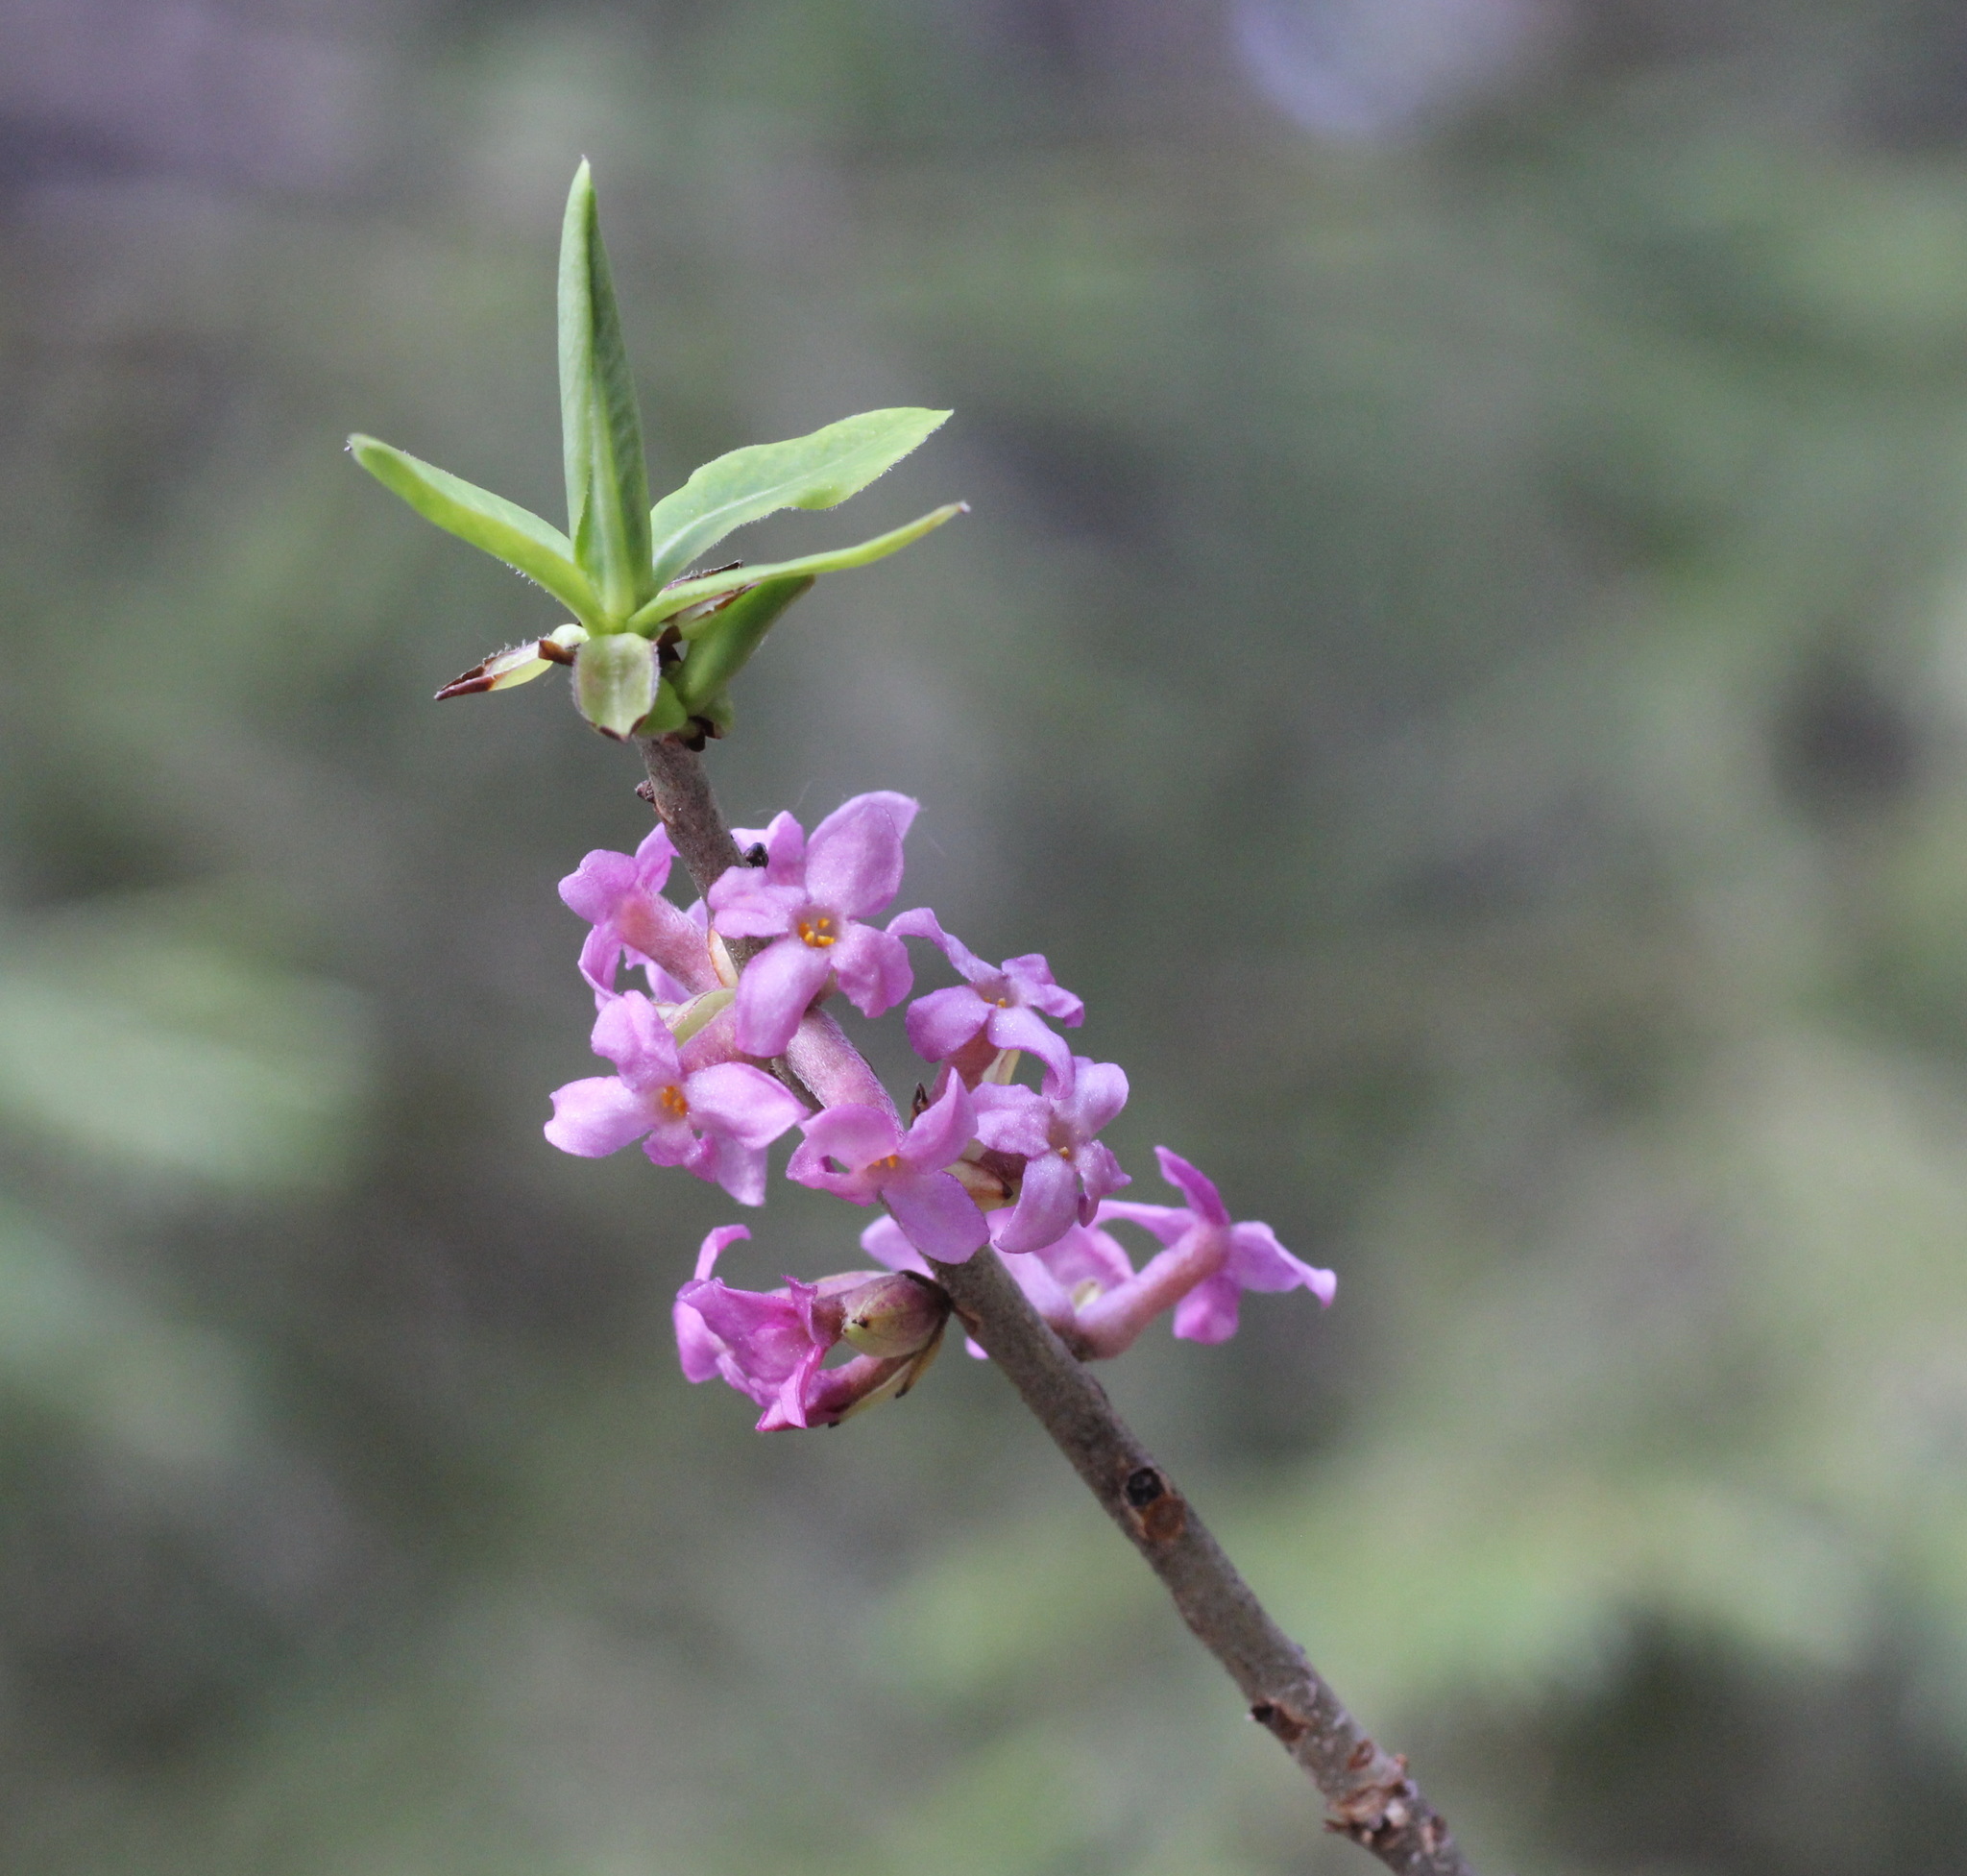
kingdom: Plantae
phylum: Tracheophyta
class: Magnoliopsida
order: Malvales
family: Thymelaeaceae
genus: Daphne
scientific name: Daphne mezereum
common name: Mezereon
